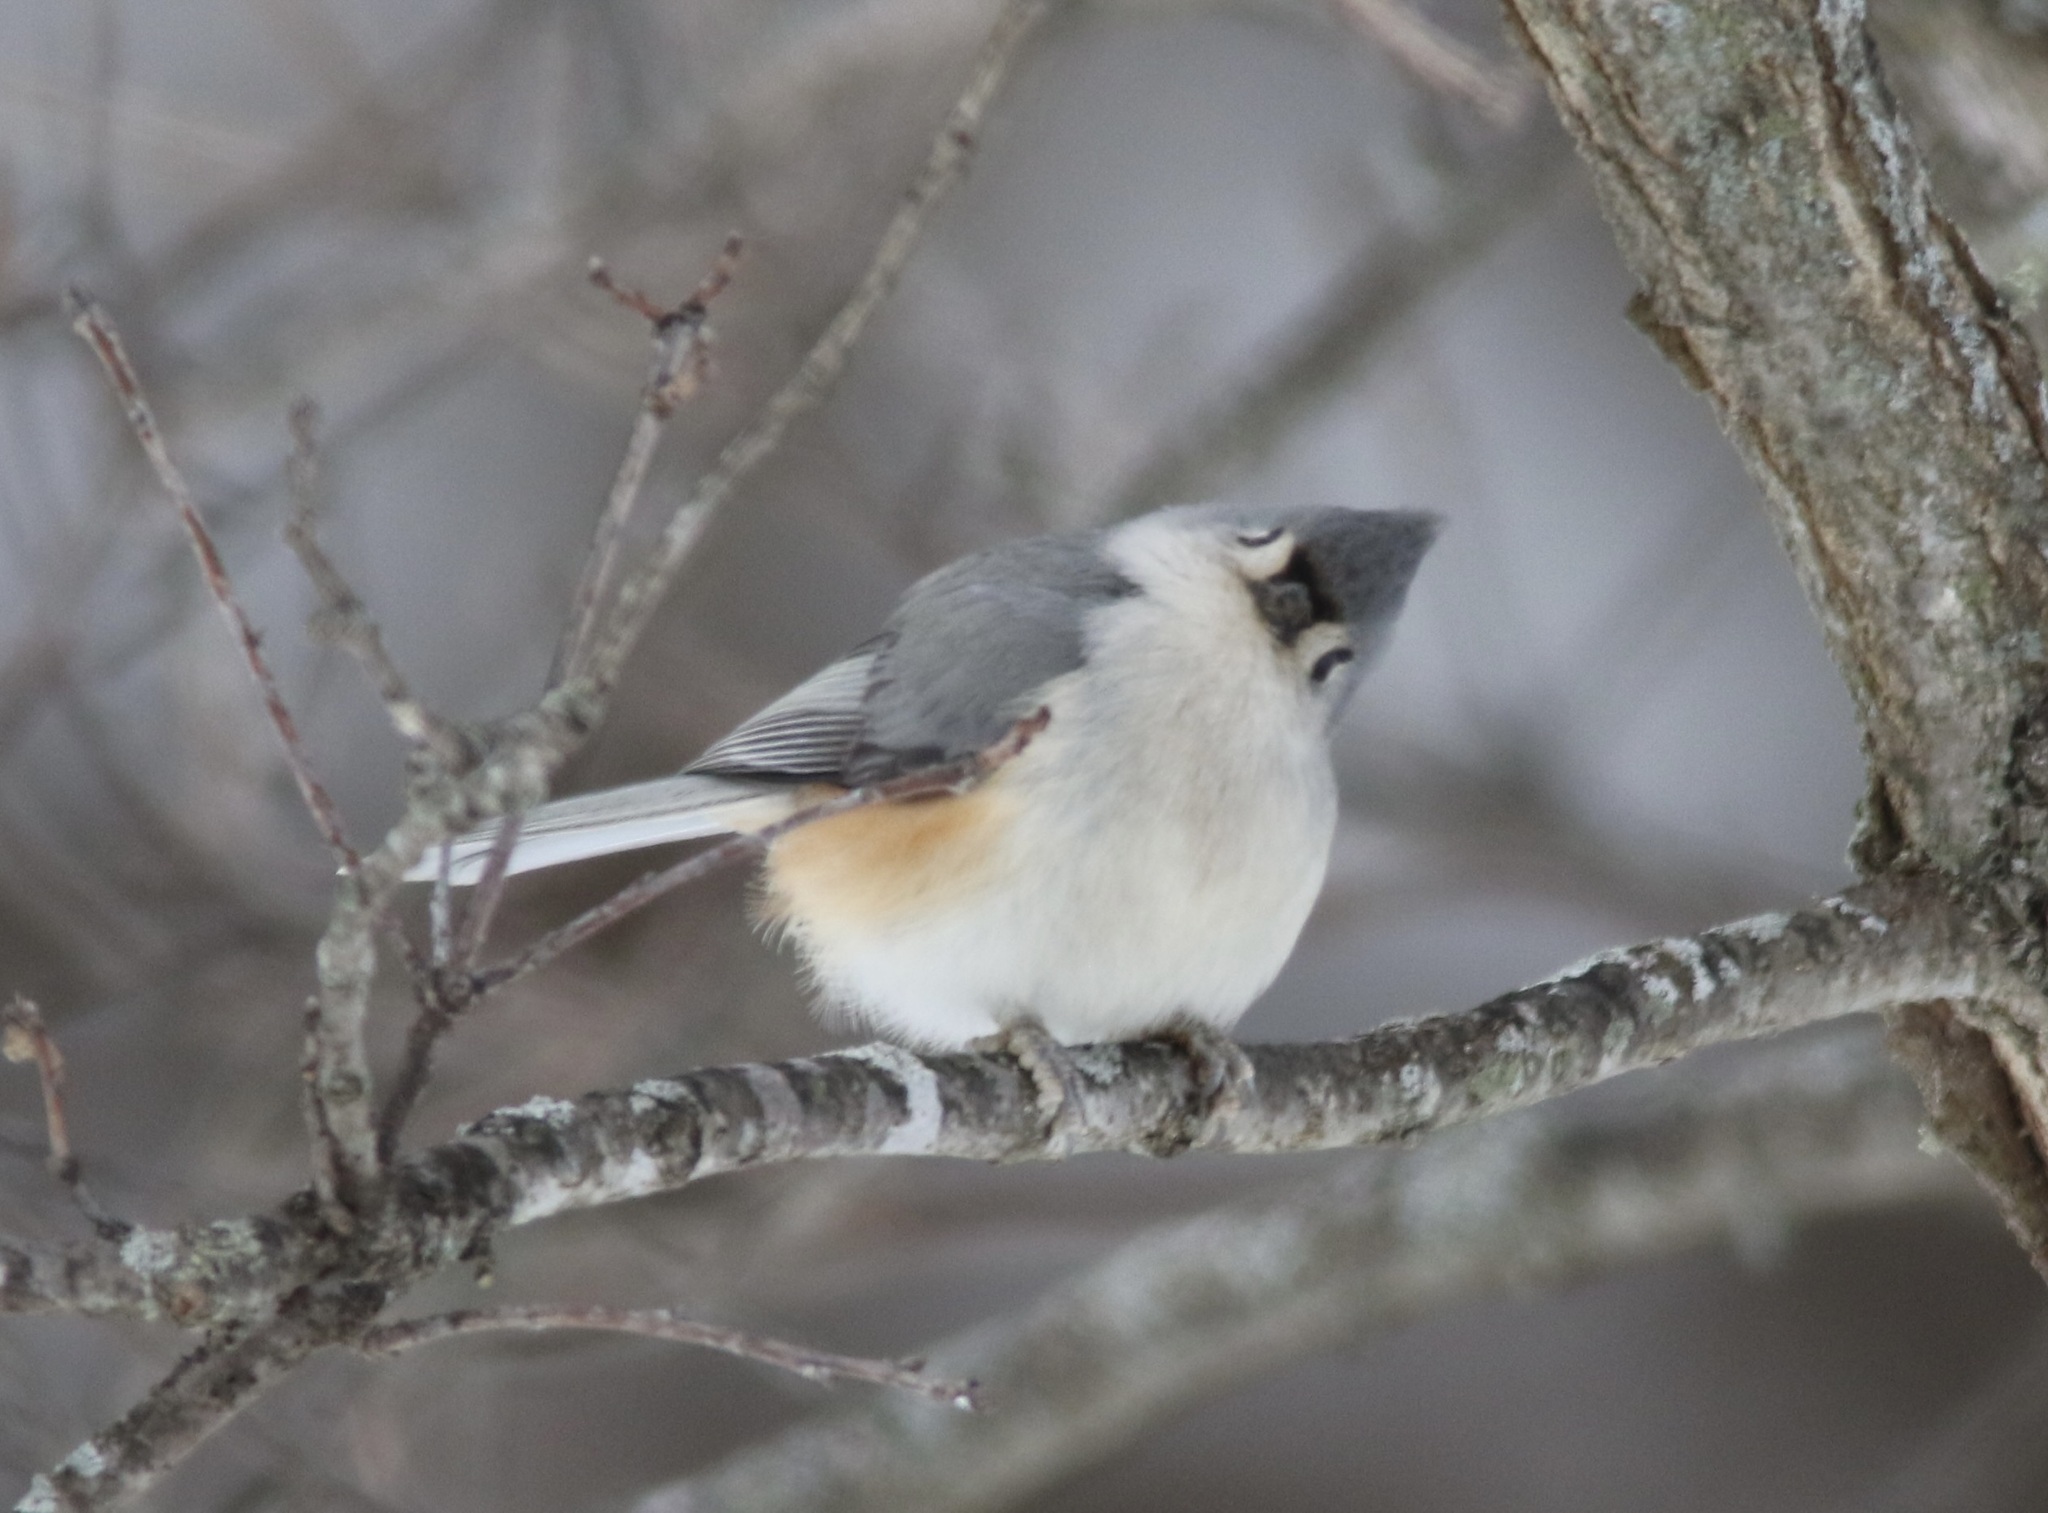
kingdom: Animalia
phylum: Chordata
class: Aves
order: Passeriformes
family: Paridae
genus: Baeolophus
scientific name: Baeolophus bicolor
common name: Tufted titmouse
